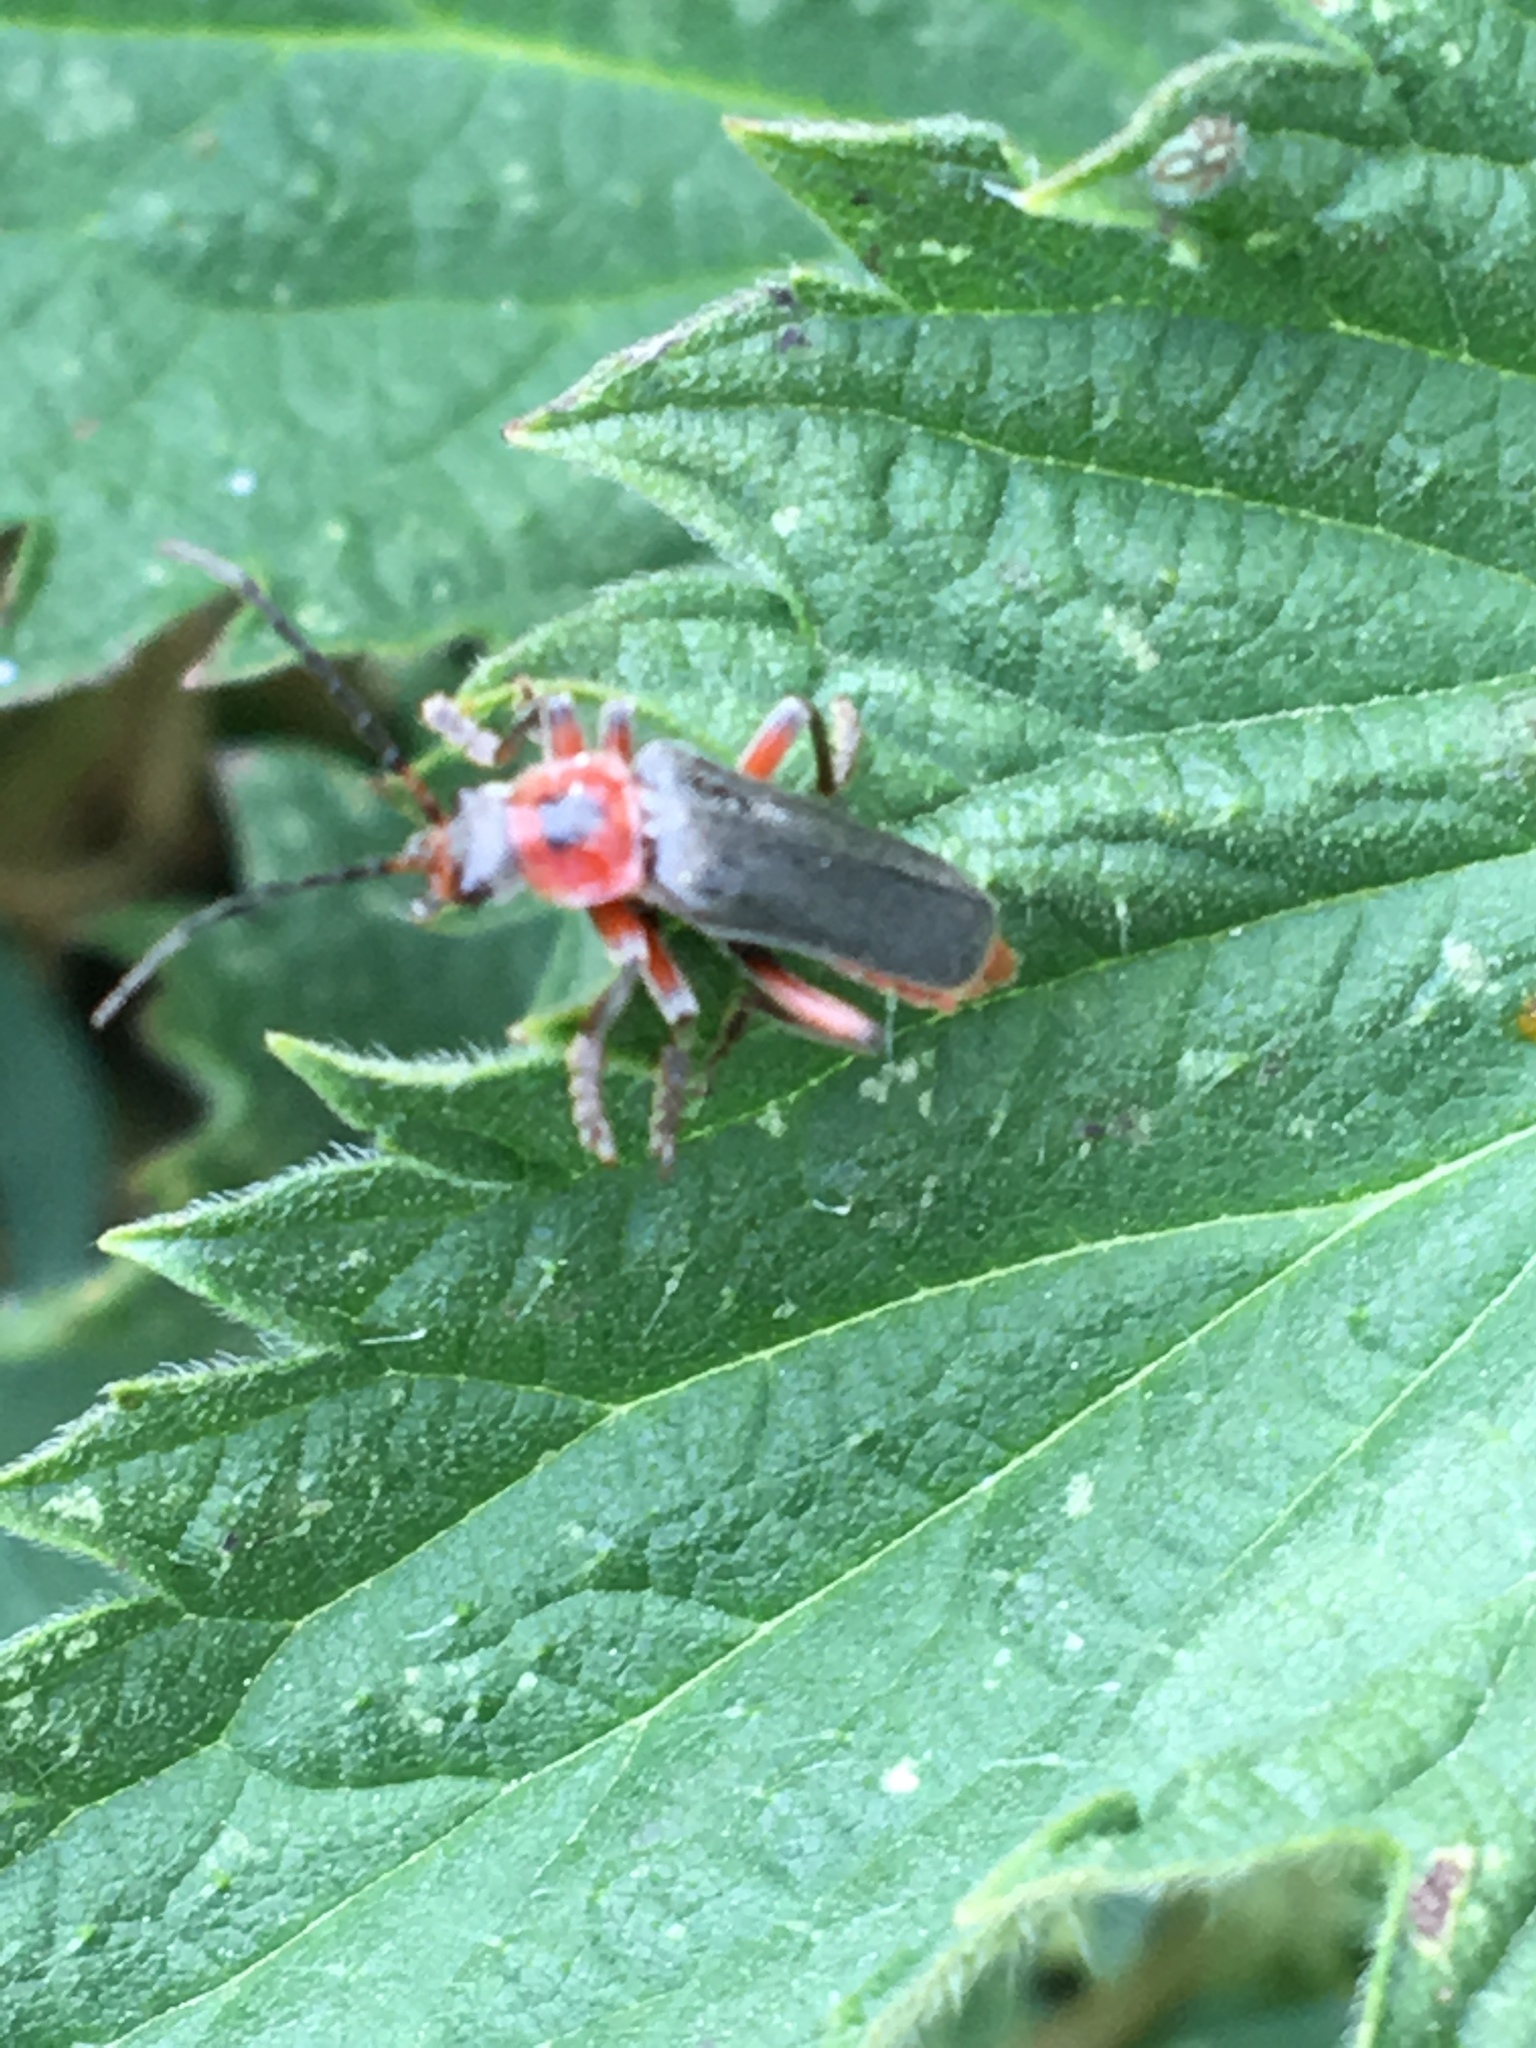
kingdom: Animalia
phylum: Arthropoda
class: Insecta
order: Coleoptera
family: Cantharidae
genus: Cantharis
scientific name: Cantharis rustica
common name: Soldier beetle
